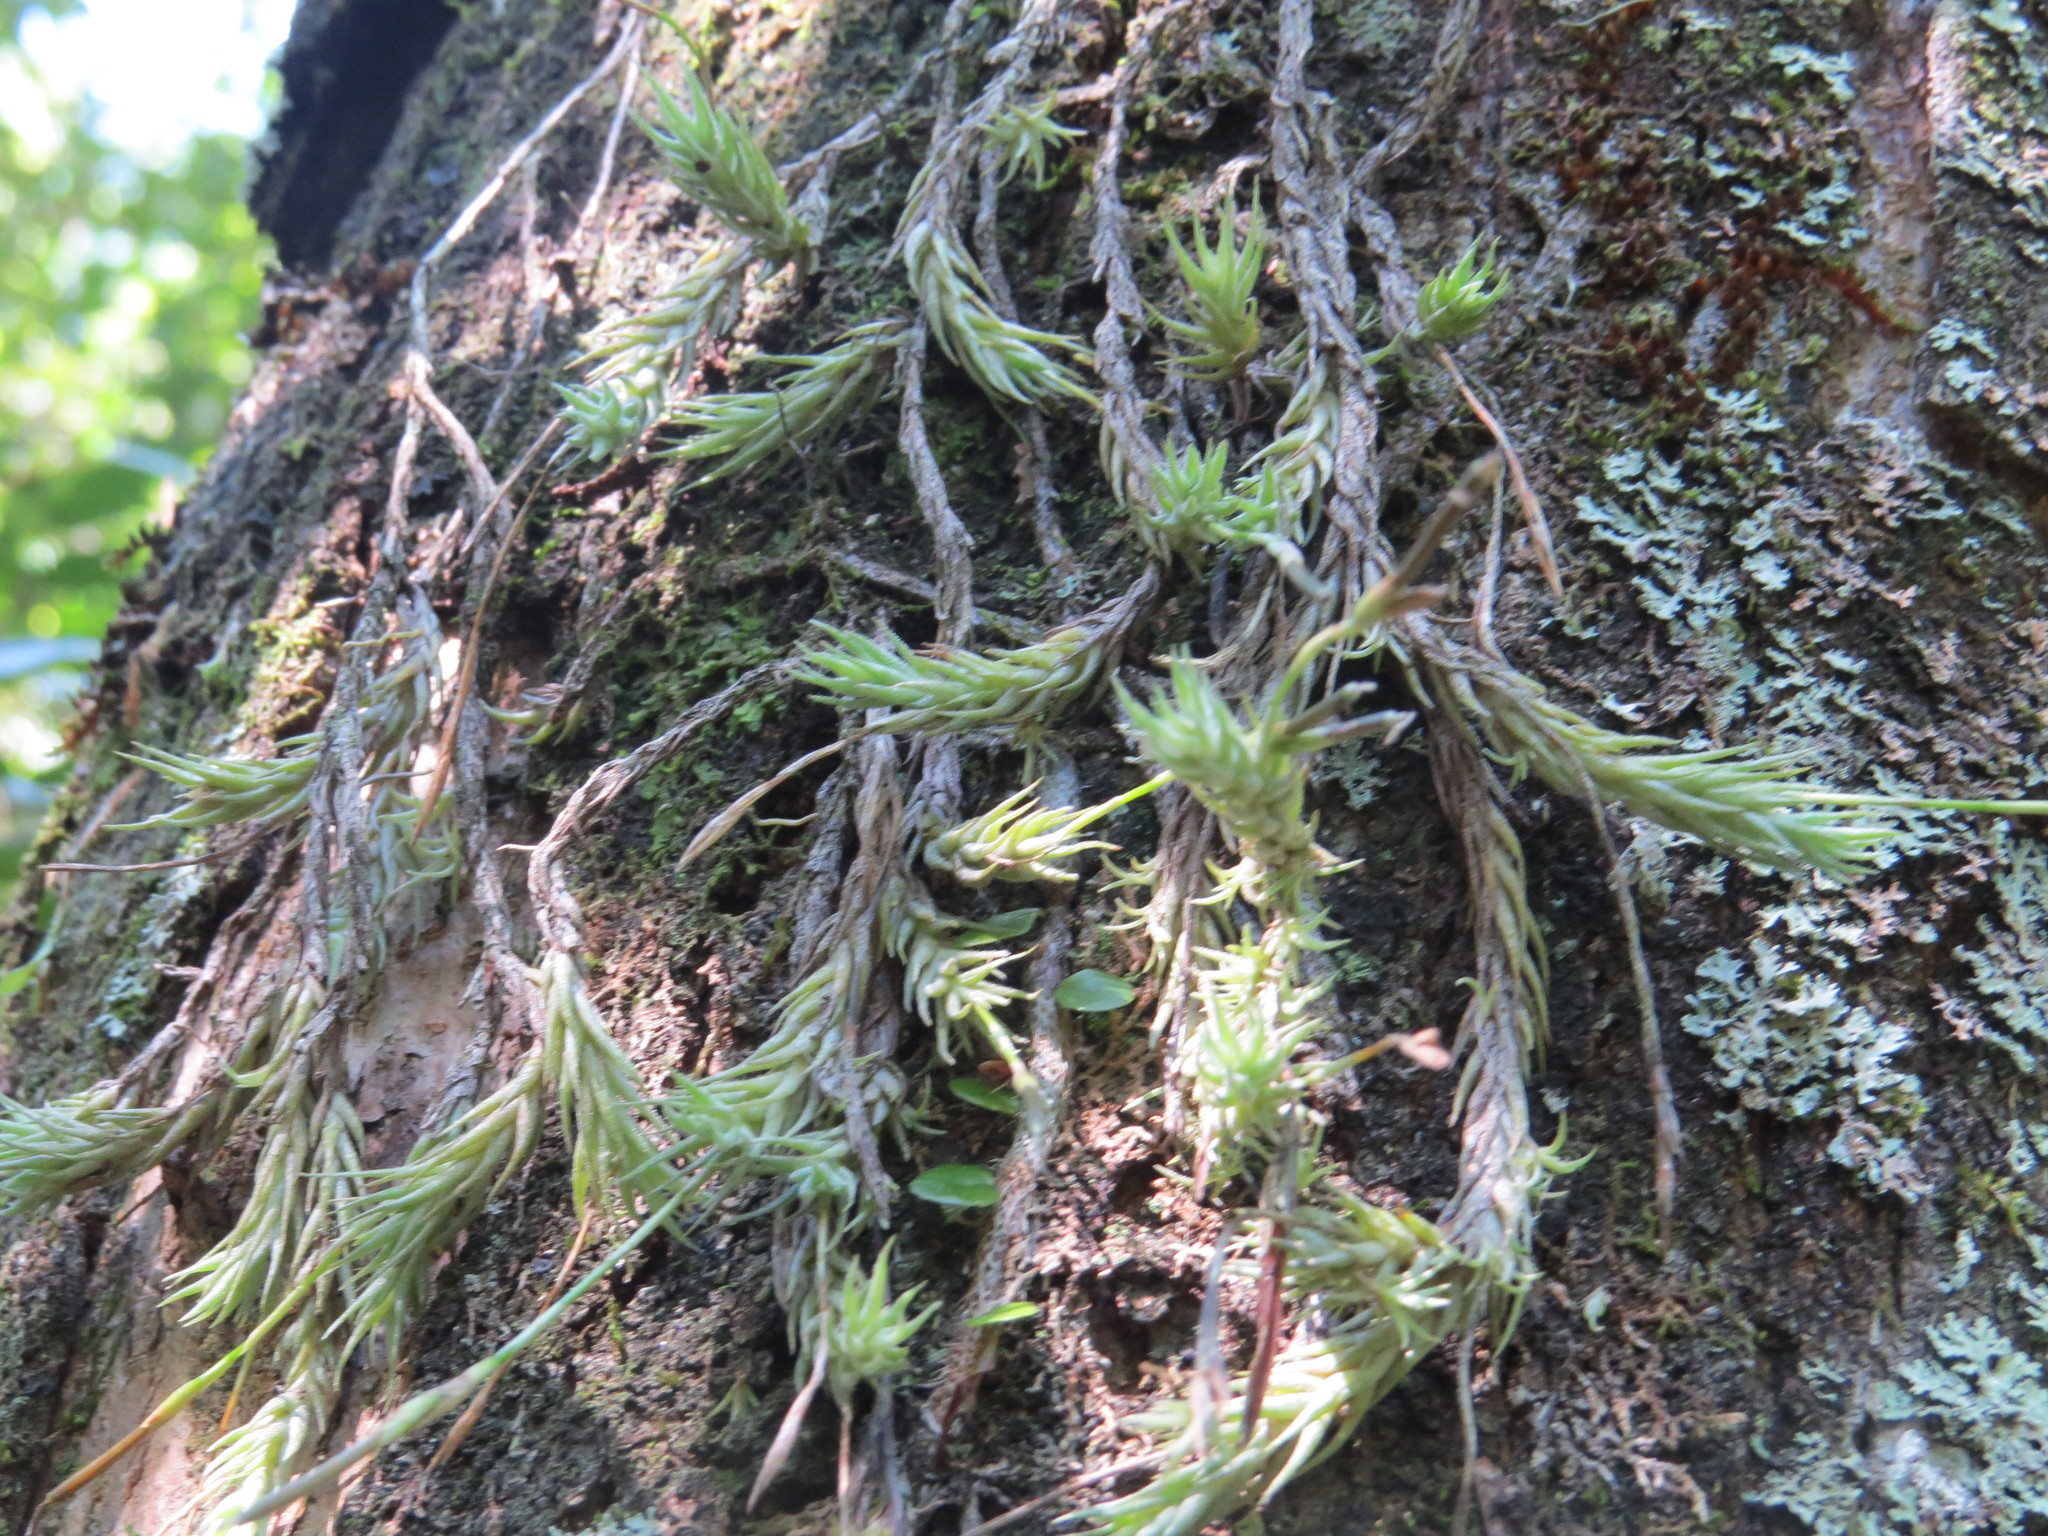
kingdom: Plantae
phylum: Tracheophyta
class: Liliopsida
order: Poales
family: Bromeliaceae
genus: Tillandsia
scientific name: Tillandsia tricholepis
